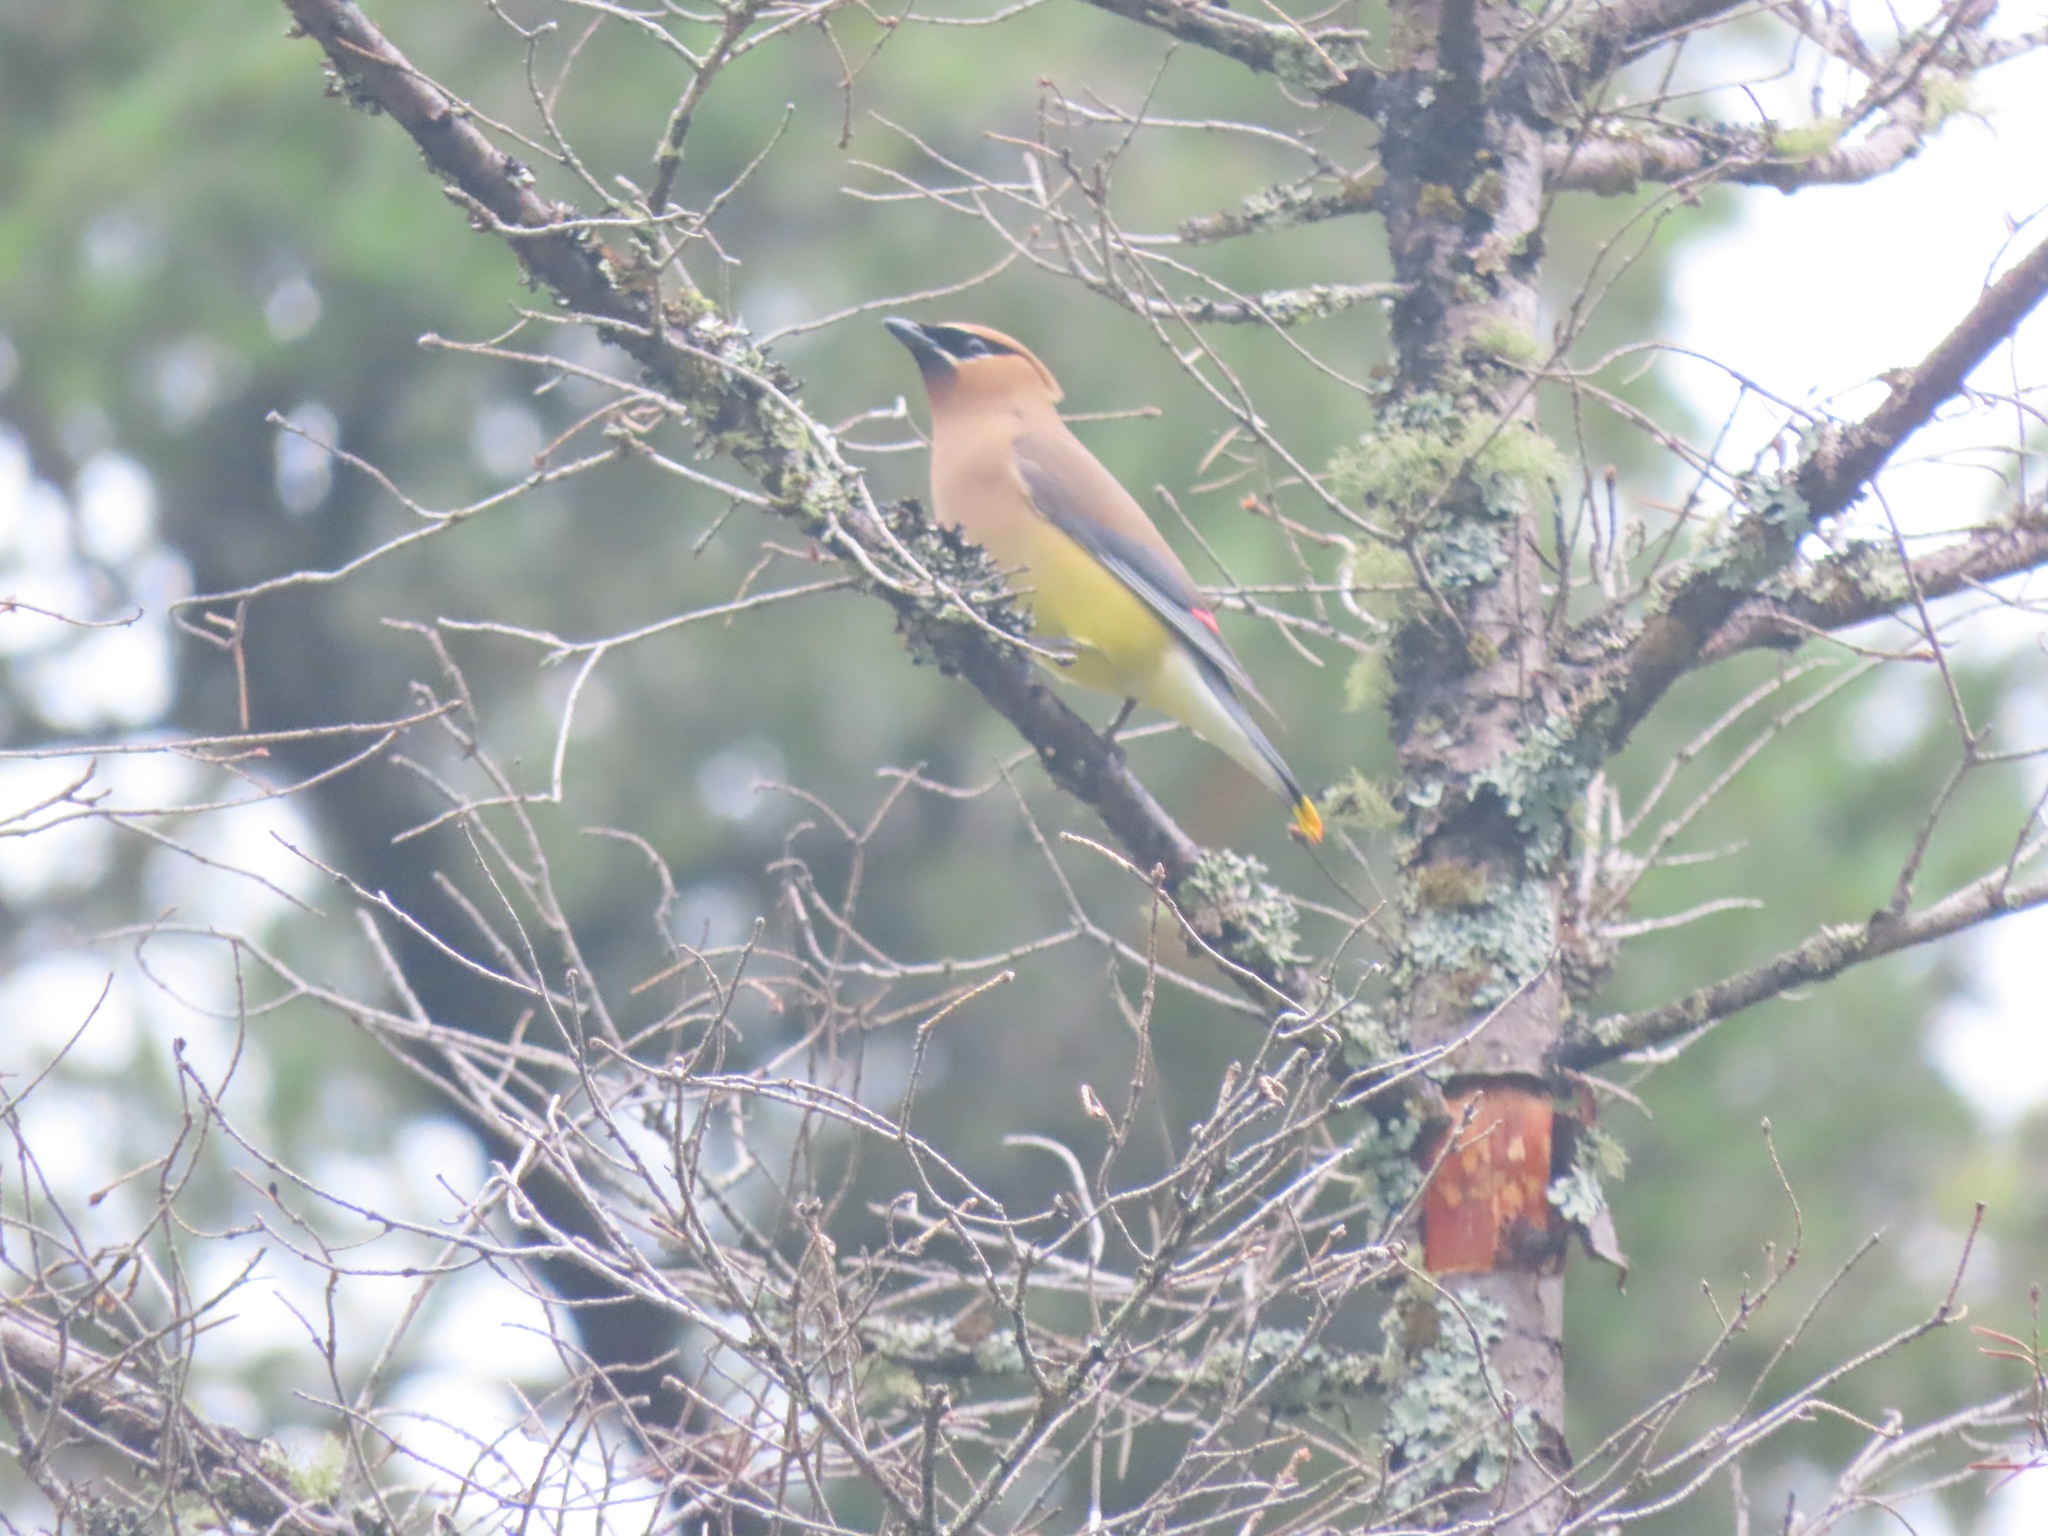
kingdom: Animalia
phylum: Chordata
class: Aves
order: Passeriformes
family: Bombycillidae
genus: Bombycilla
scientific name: Bombycilla cedrorum
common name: Cedar waxwing
